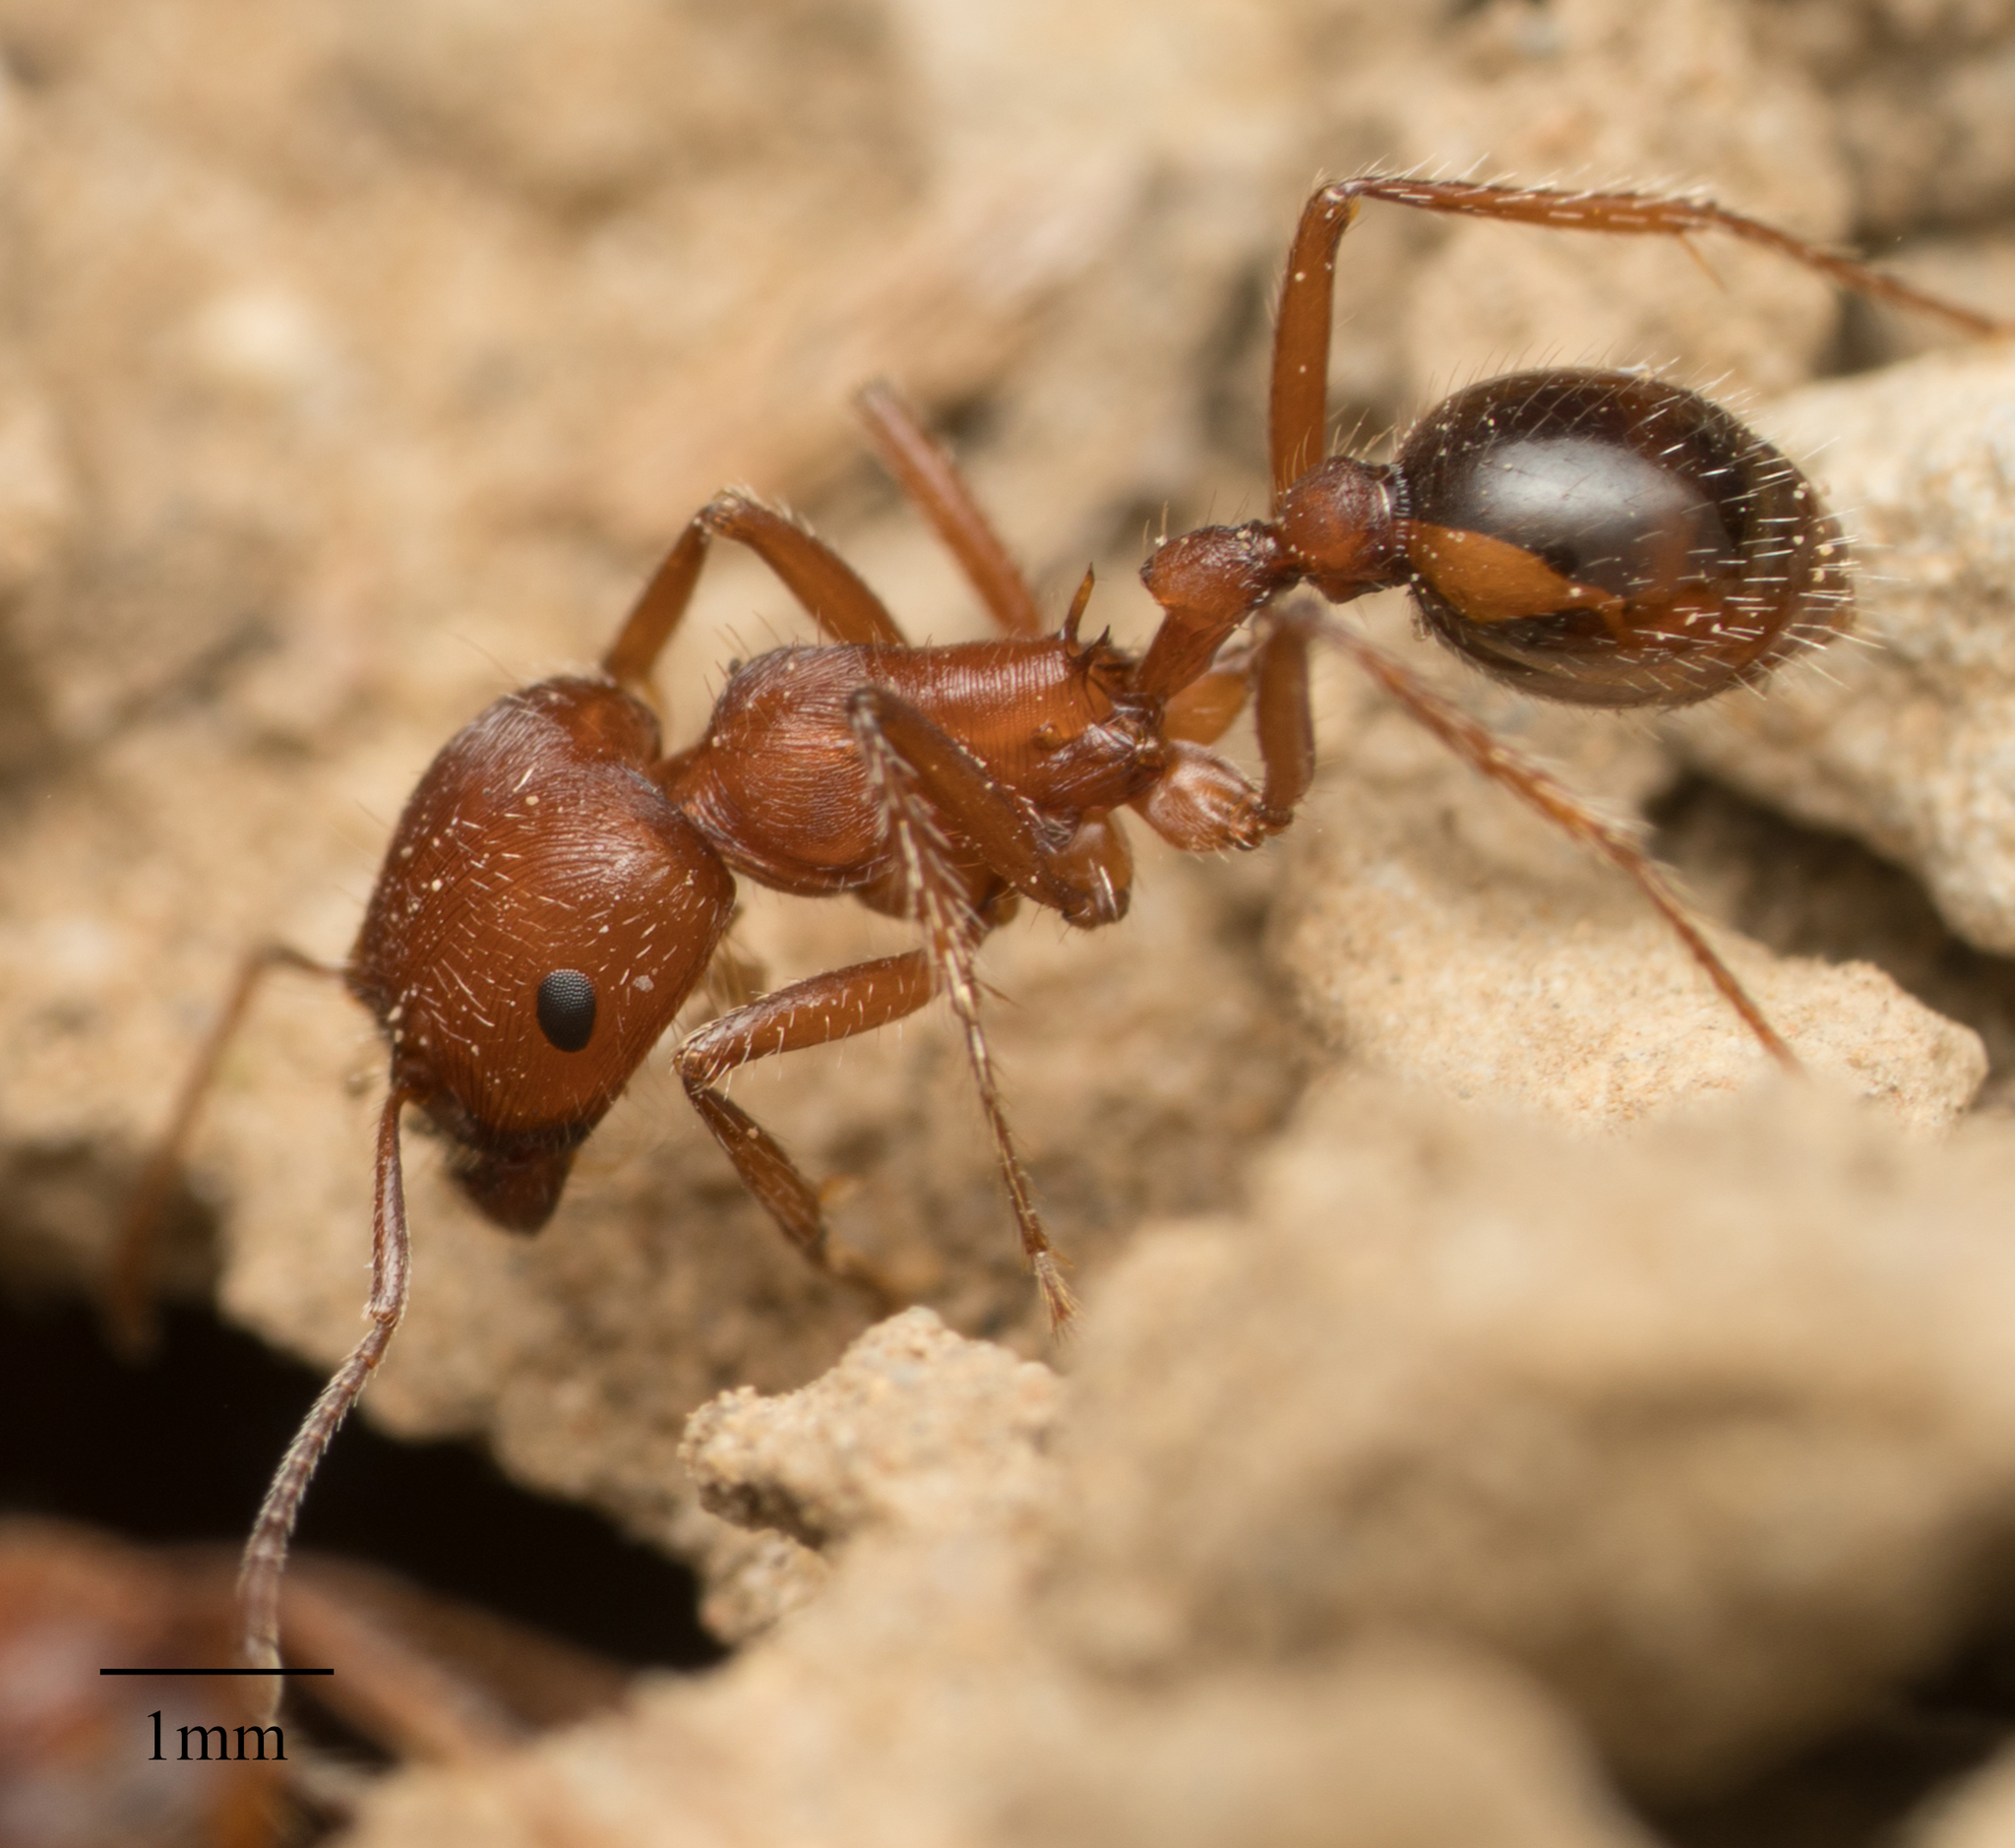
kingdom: Animalia
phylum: Arthropoda
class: Insecta
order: Hymenoptera
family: Formicidae
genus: Pogonomyrmex
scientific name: Pogonomyrmex subnitidus
